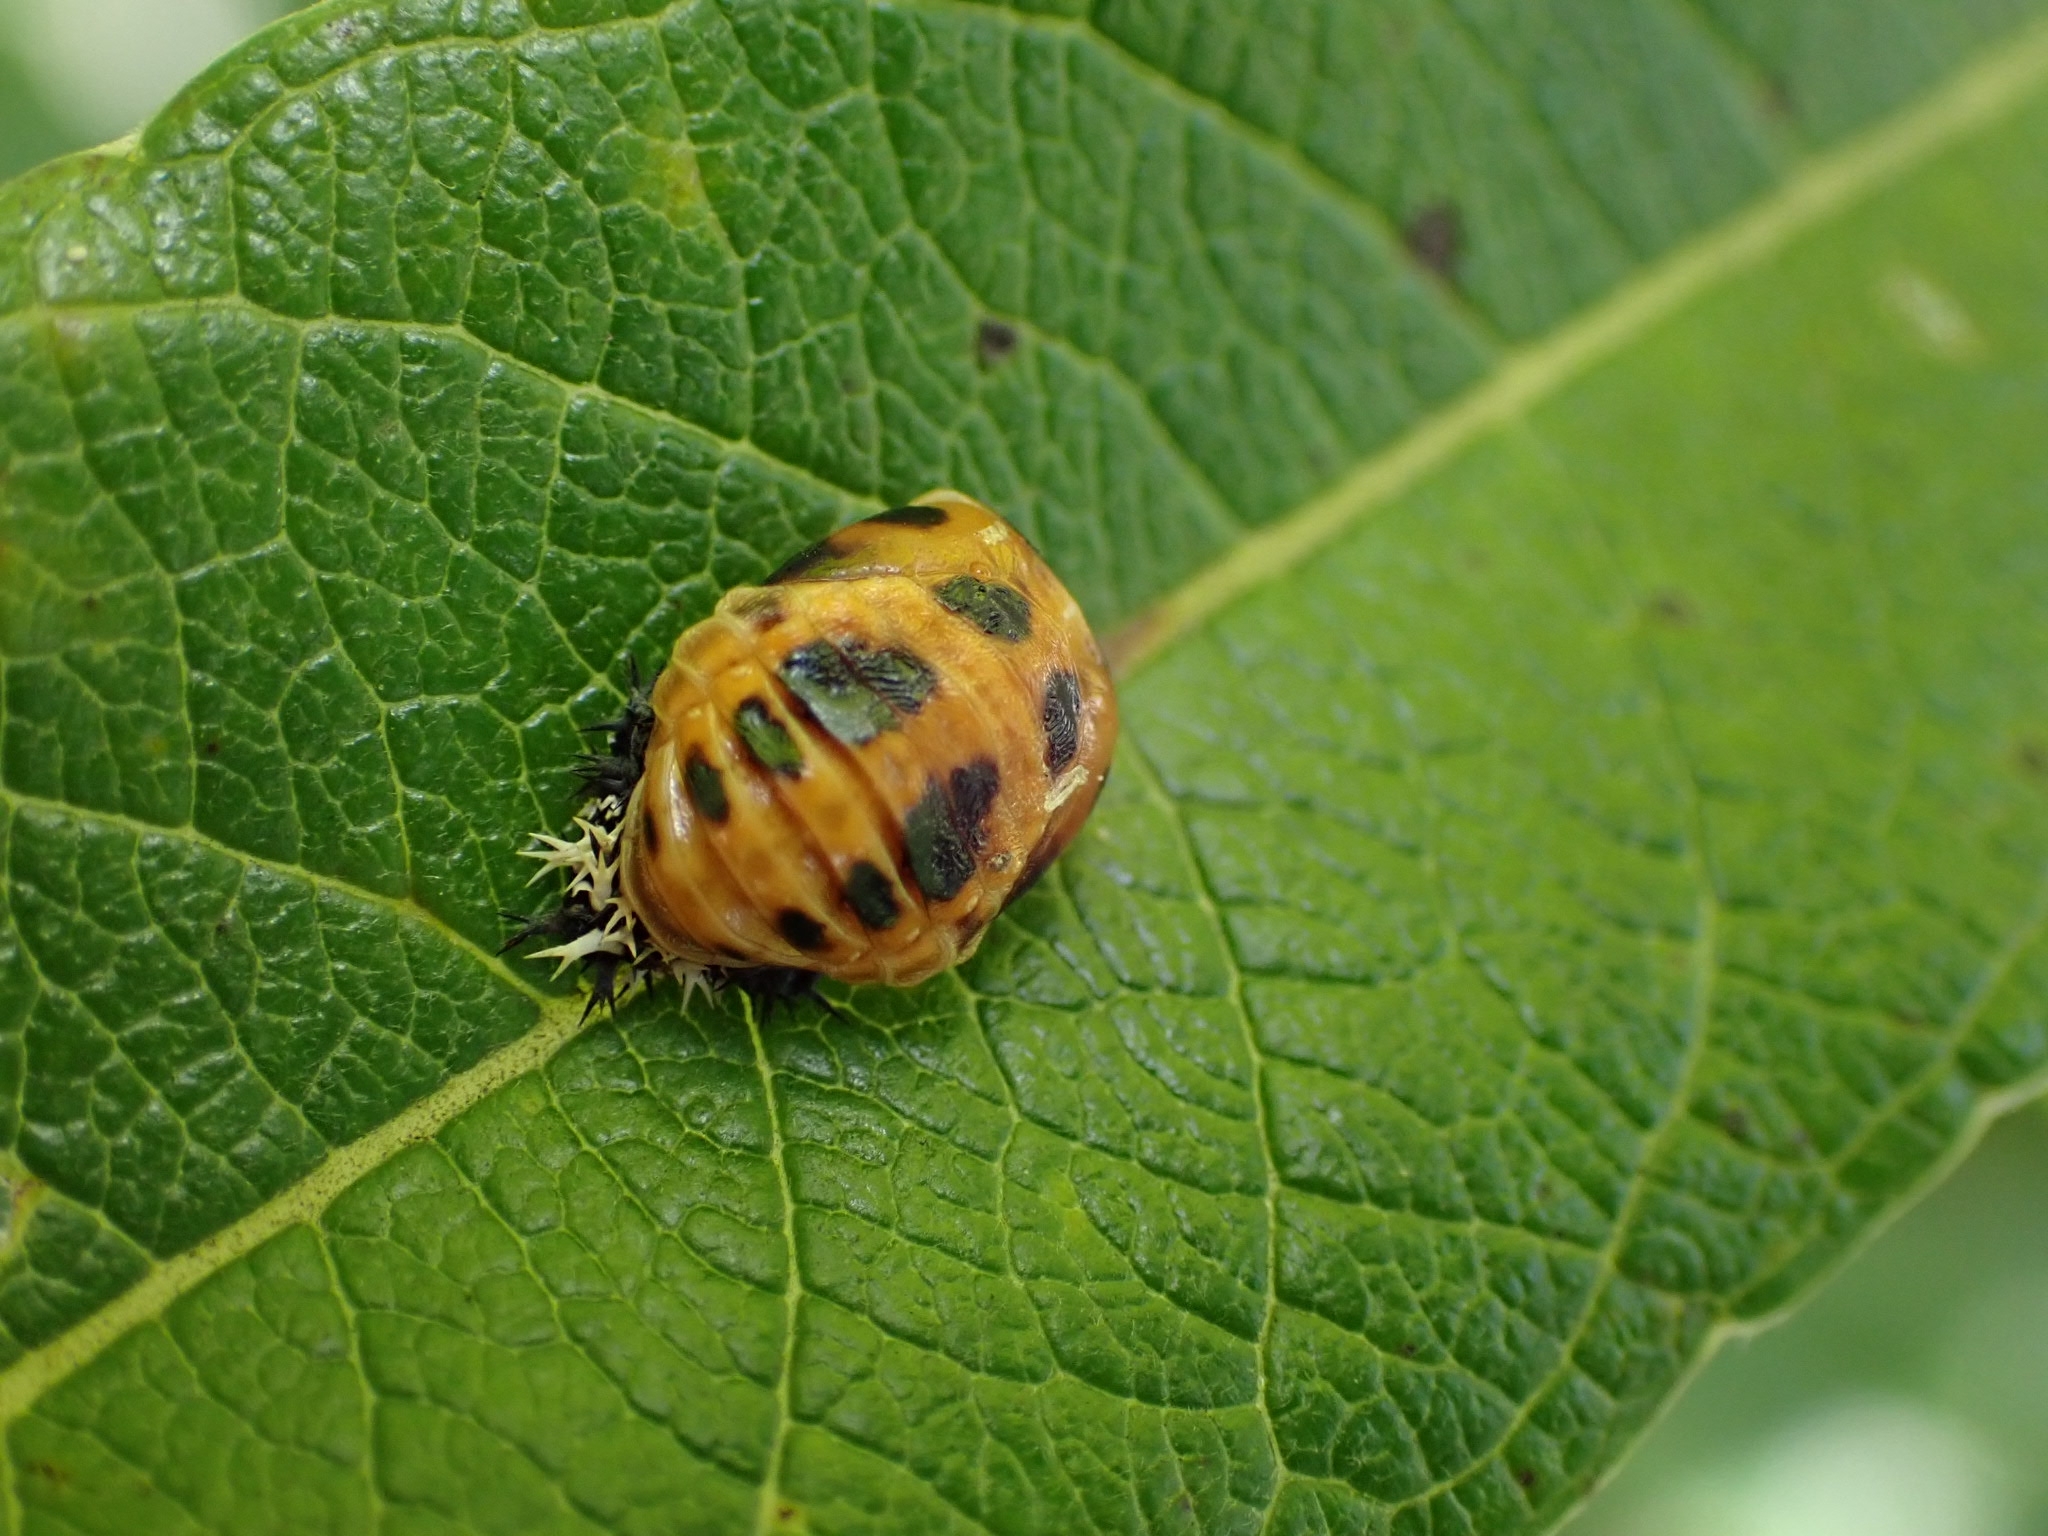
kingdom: Animalia
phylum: Arthropoda
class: Insecta
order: Coleoptera
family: Coccinellidae
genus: Harmonia
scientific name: Harmonia axyridis
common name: Harlequin ladybird
